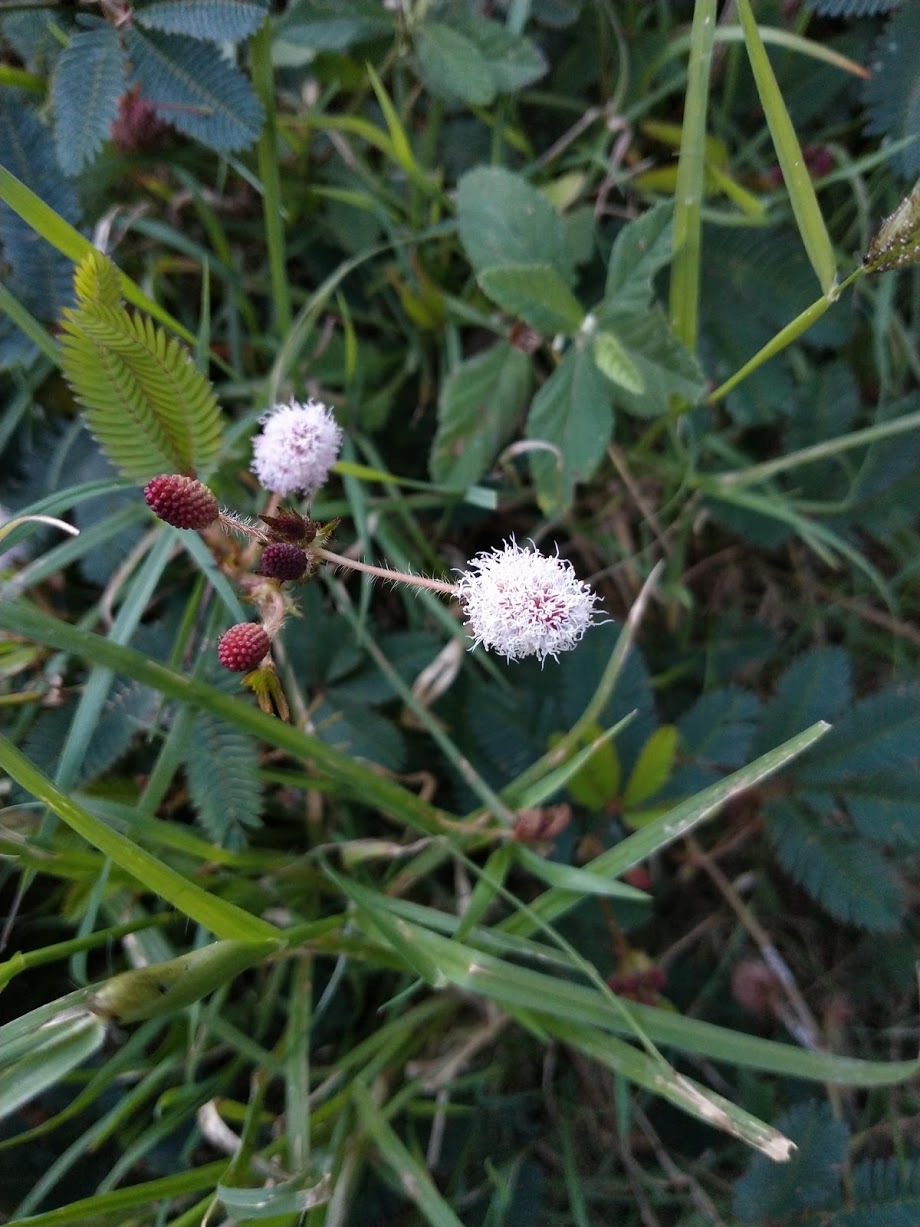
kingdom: Plantae
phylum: Tracheophyta
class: Magnoliopsida
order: Fabales
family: Fabaceae
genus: Mimosa
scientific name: Mimosa pudica
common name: Sensitive plant
